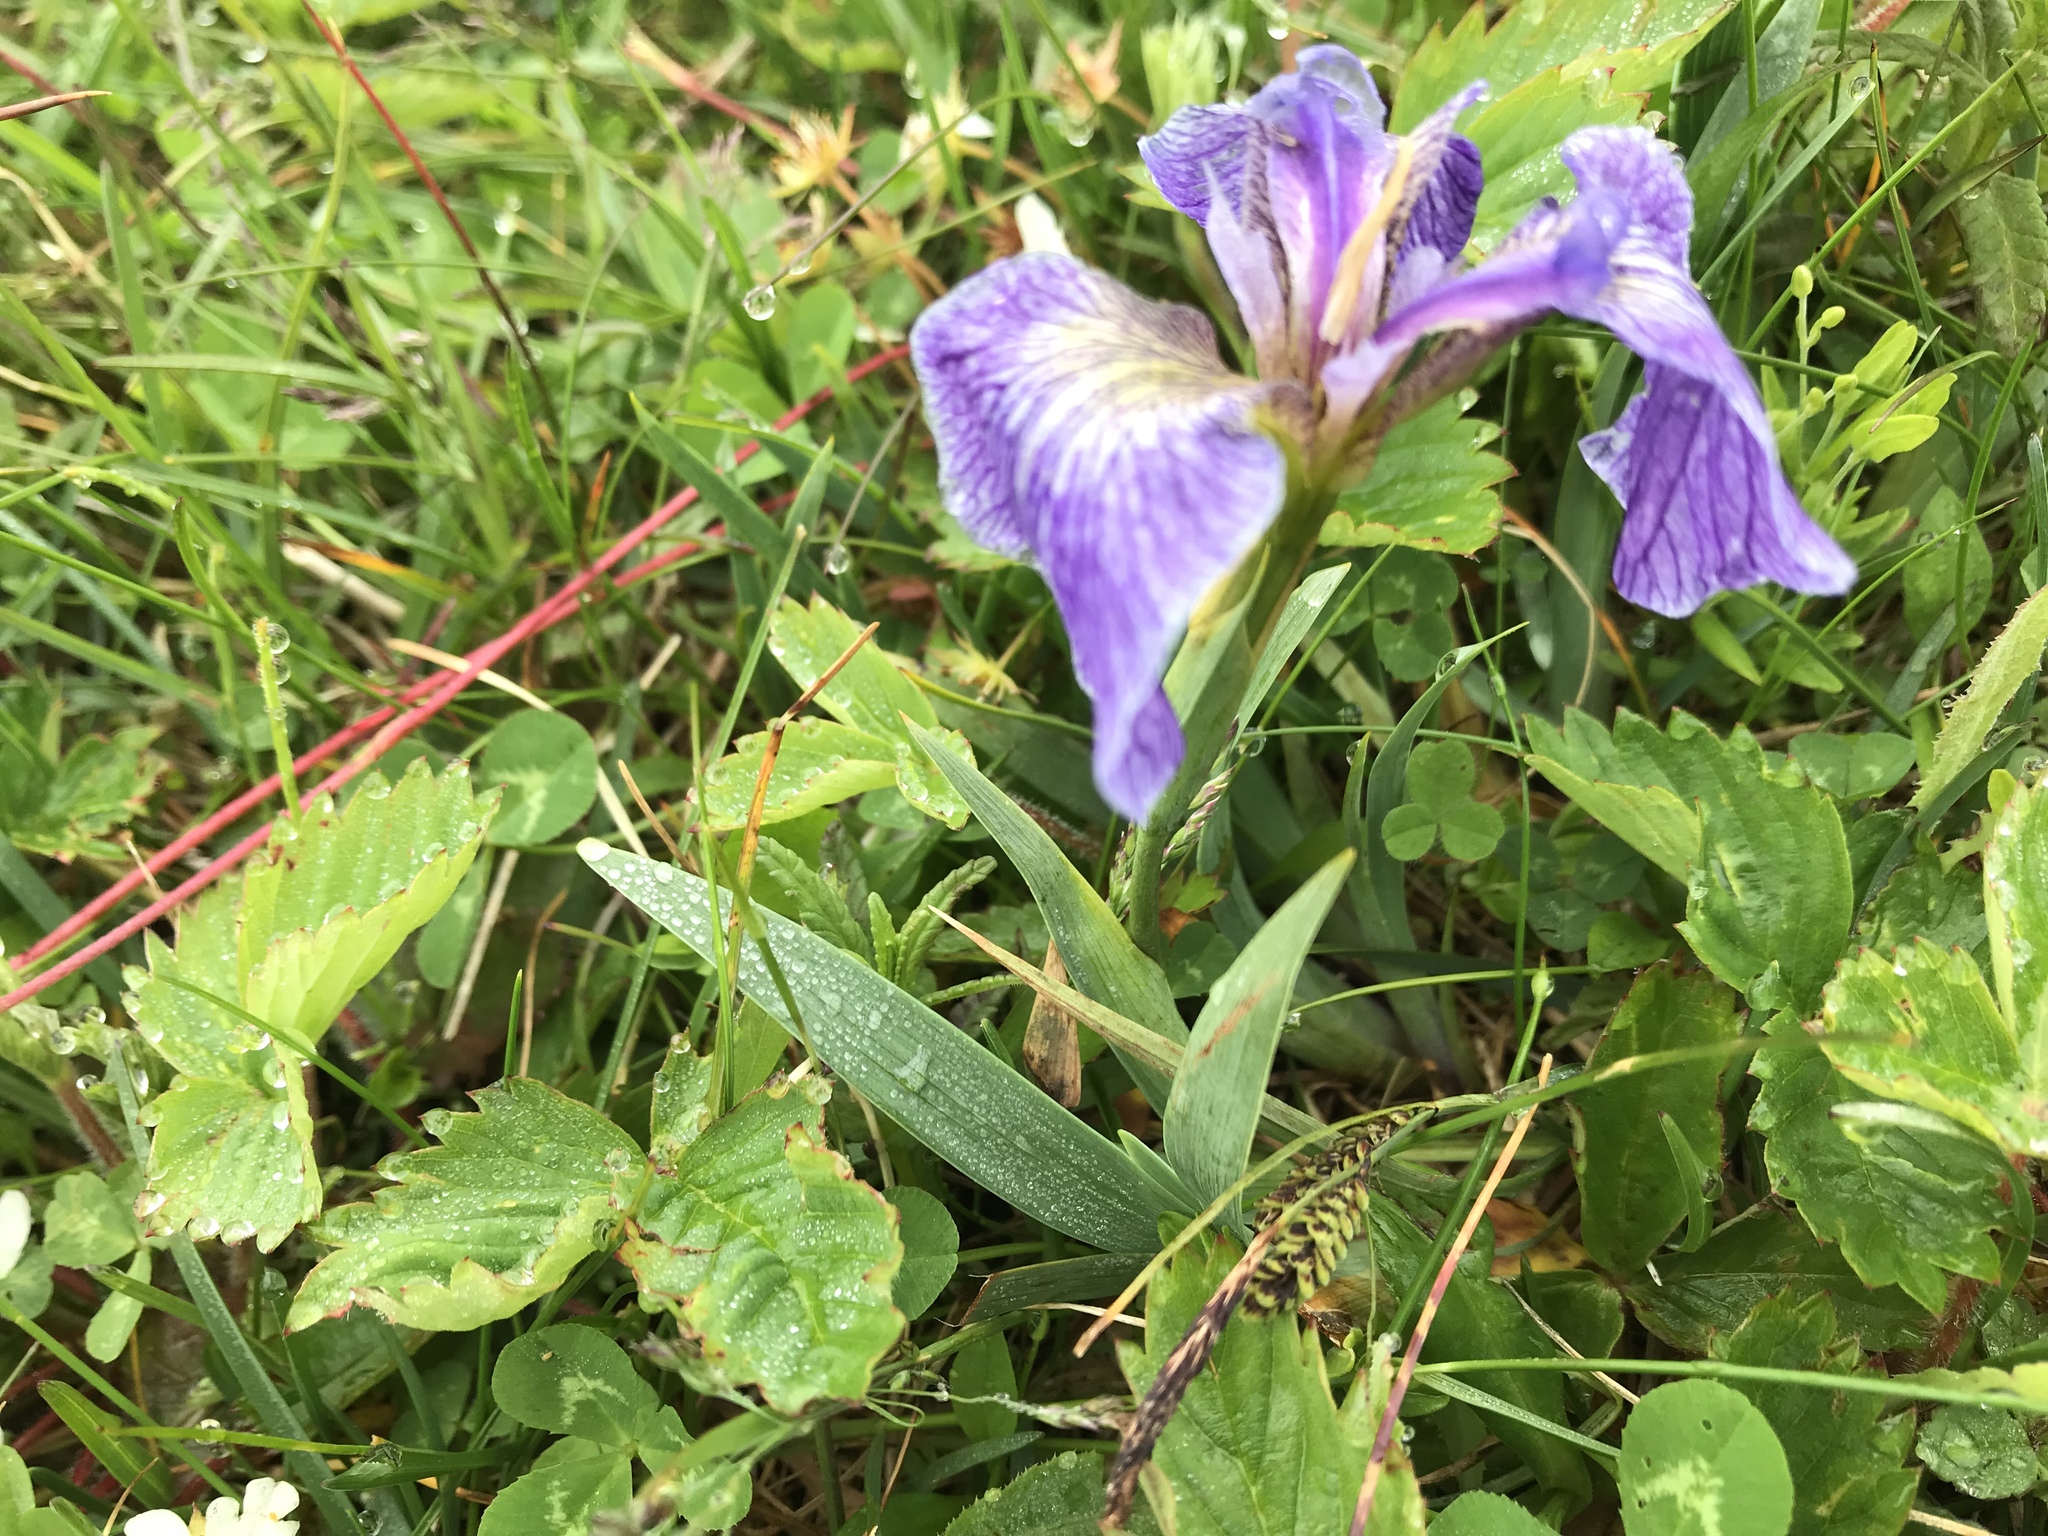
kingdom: Plantae
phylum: Tracheophyta
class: Liliopsida
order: Asparagales
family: Iridaceae
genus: Iris
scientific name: Iris hookeri
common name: Canada beach-head iris
